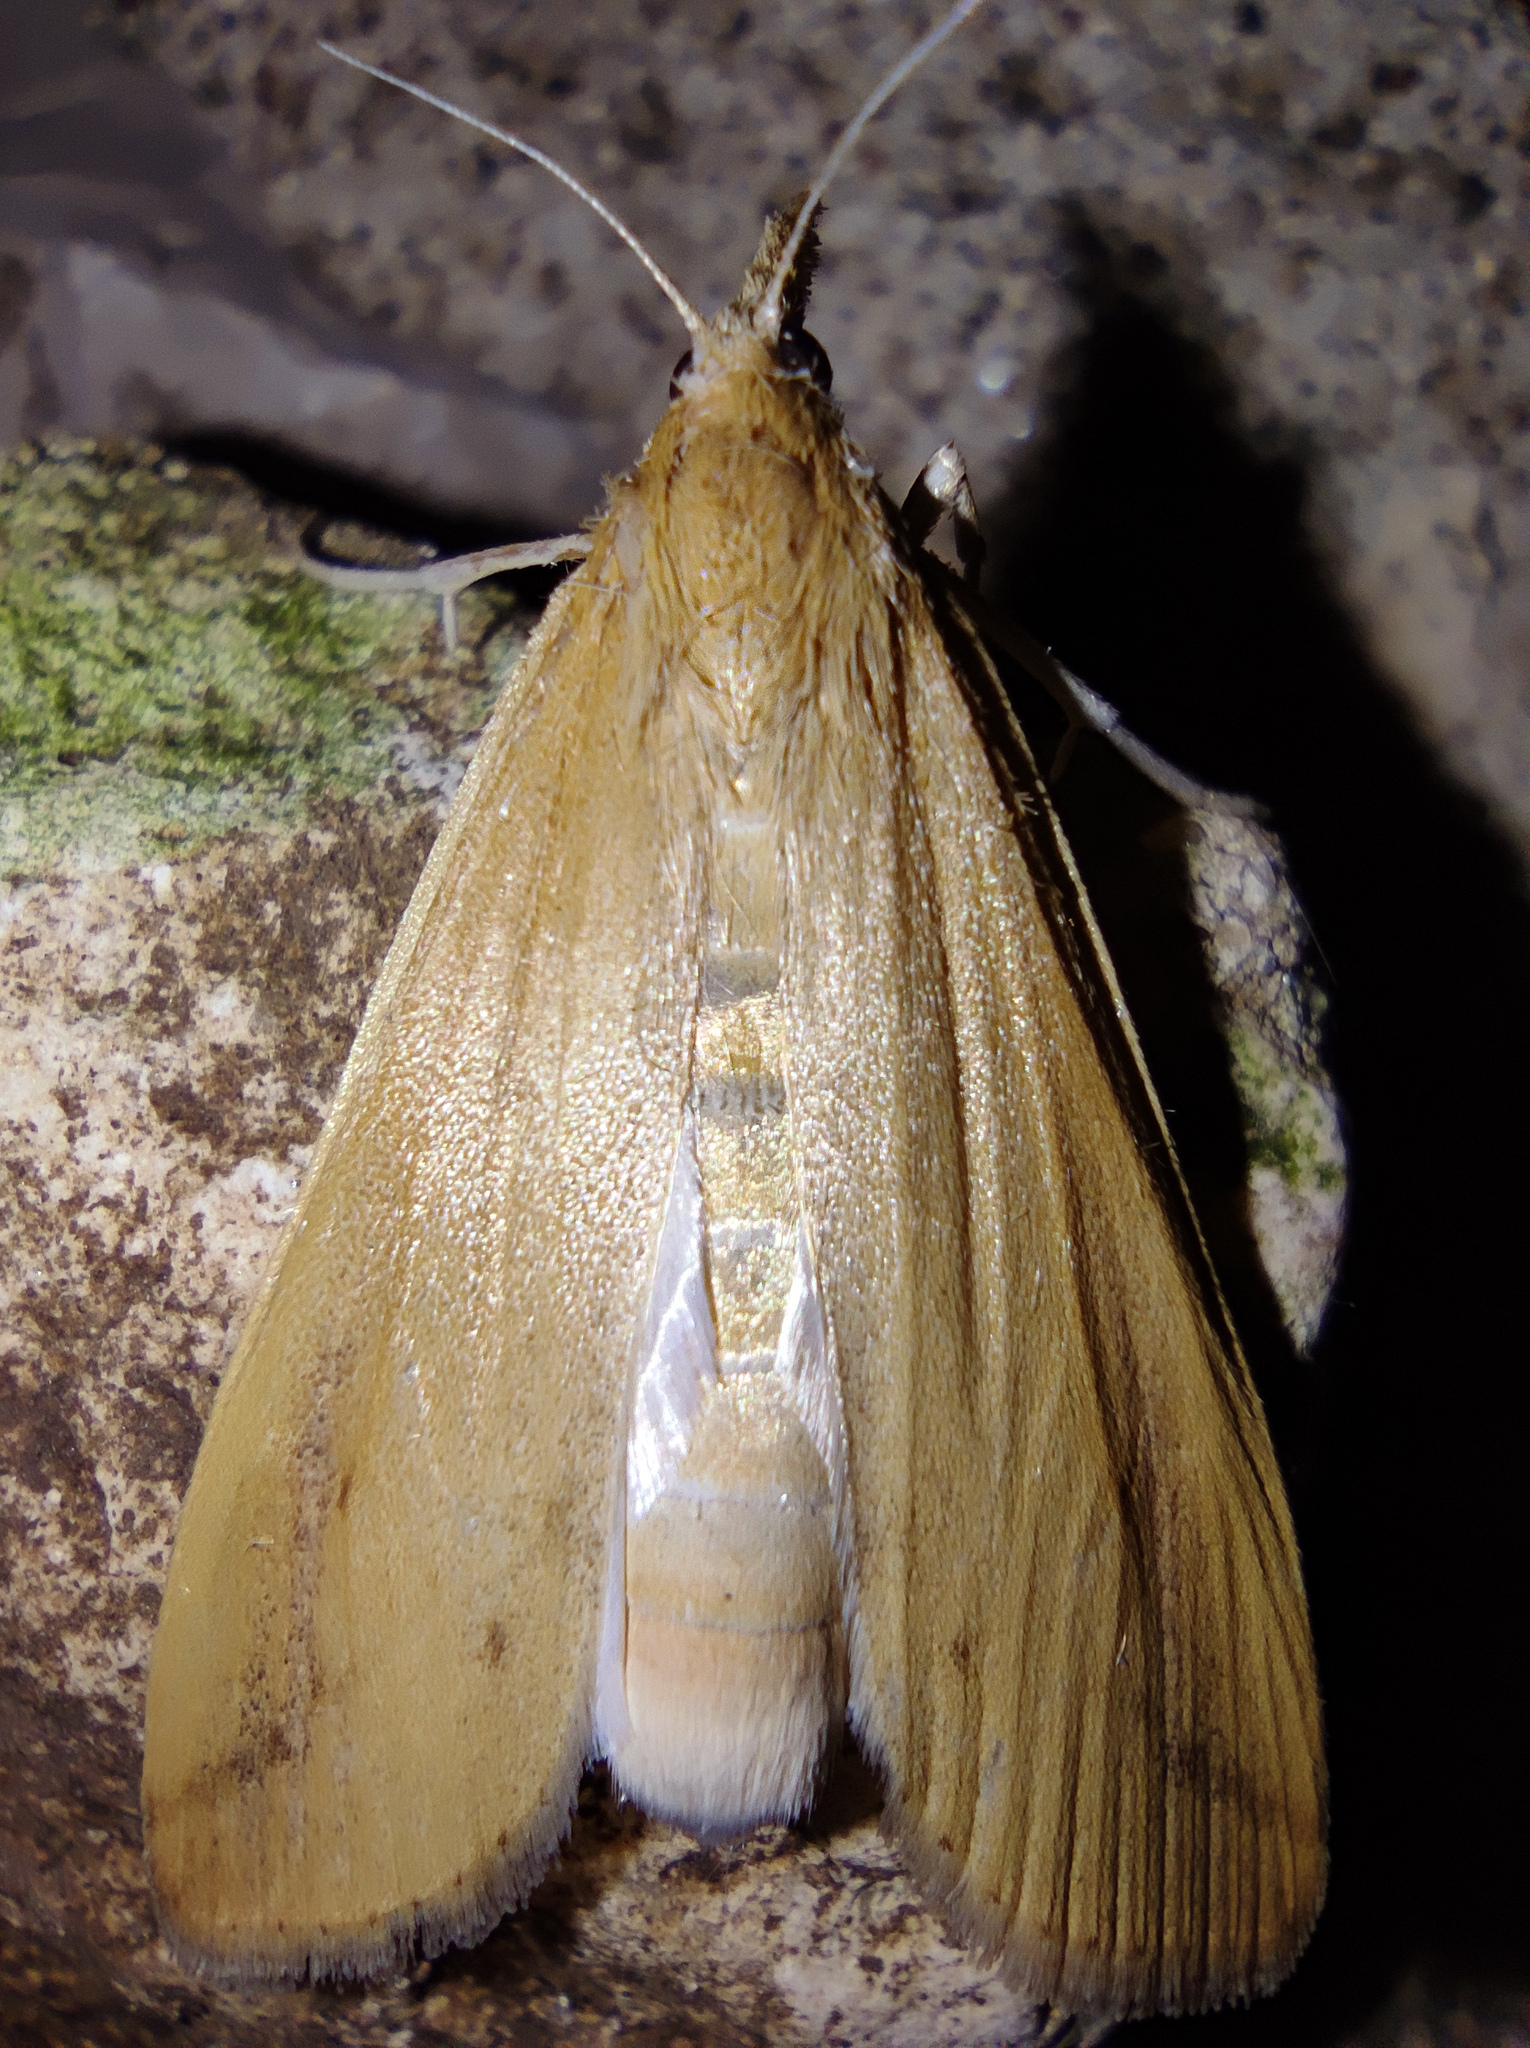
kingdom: Animalia
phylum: Arthropoda
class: Insecta
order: Lepidoptera
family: Crambidae
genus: Schoenobius
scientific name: Schoenobius gigantella
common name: Giant water-veneer
